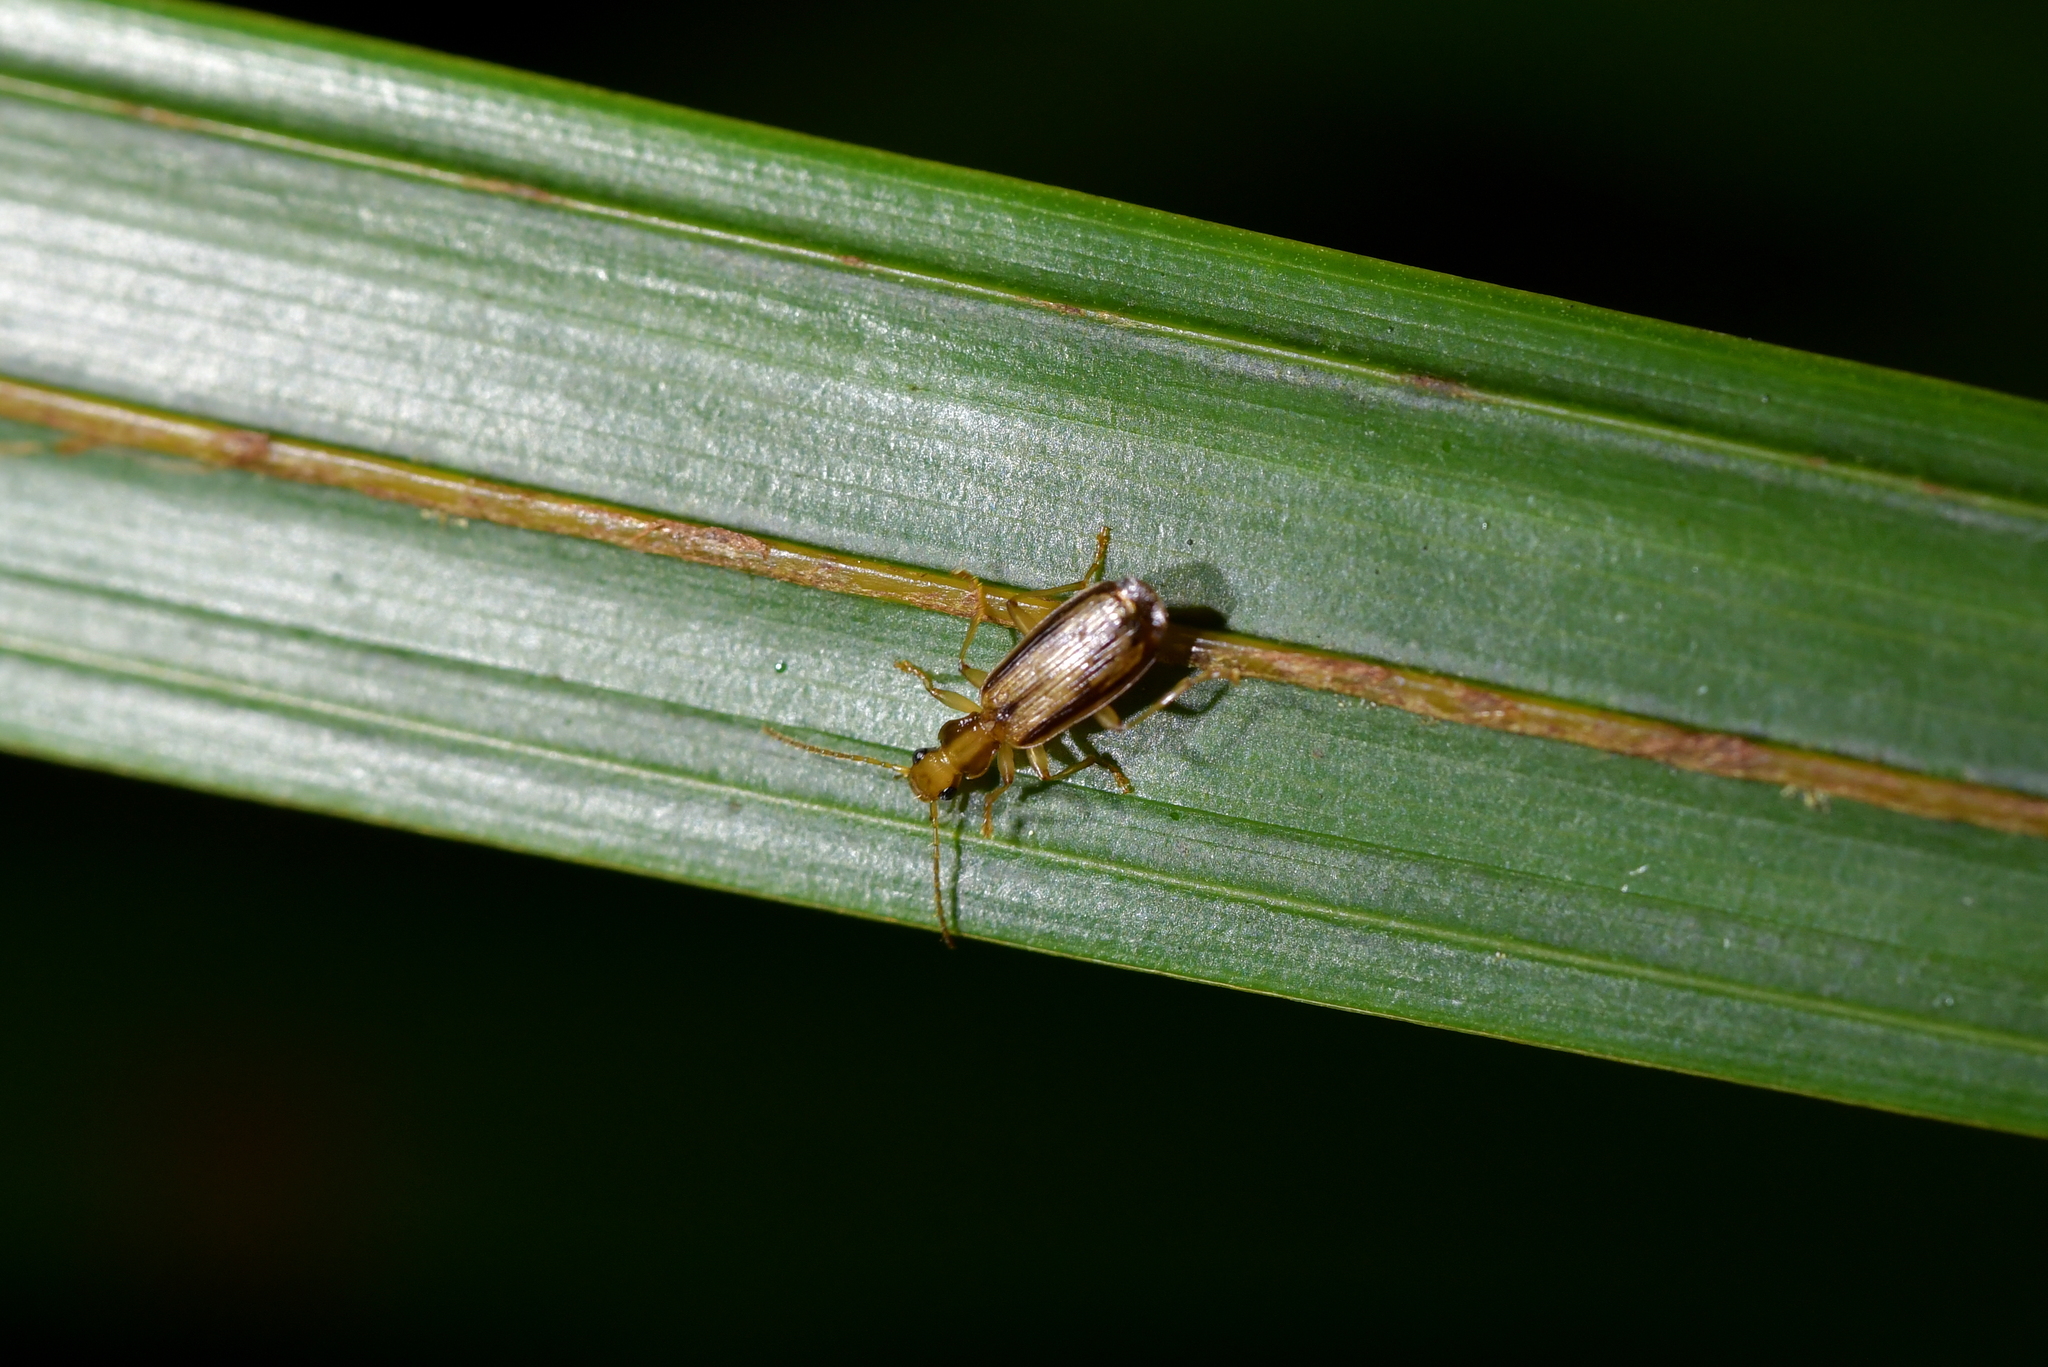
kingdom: Animalia
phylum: Arthropoda
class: Insecta
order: Coleoptera
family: Carabidae
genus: Demetrida
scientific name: Demetrida lineella
